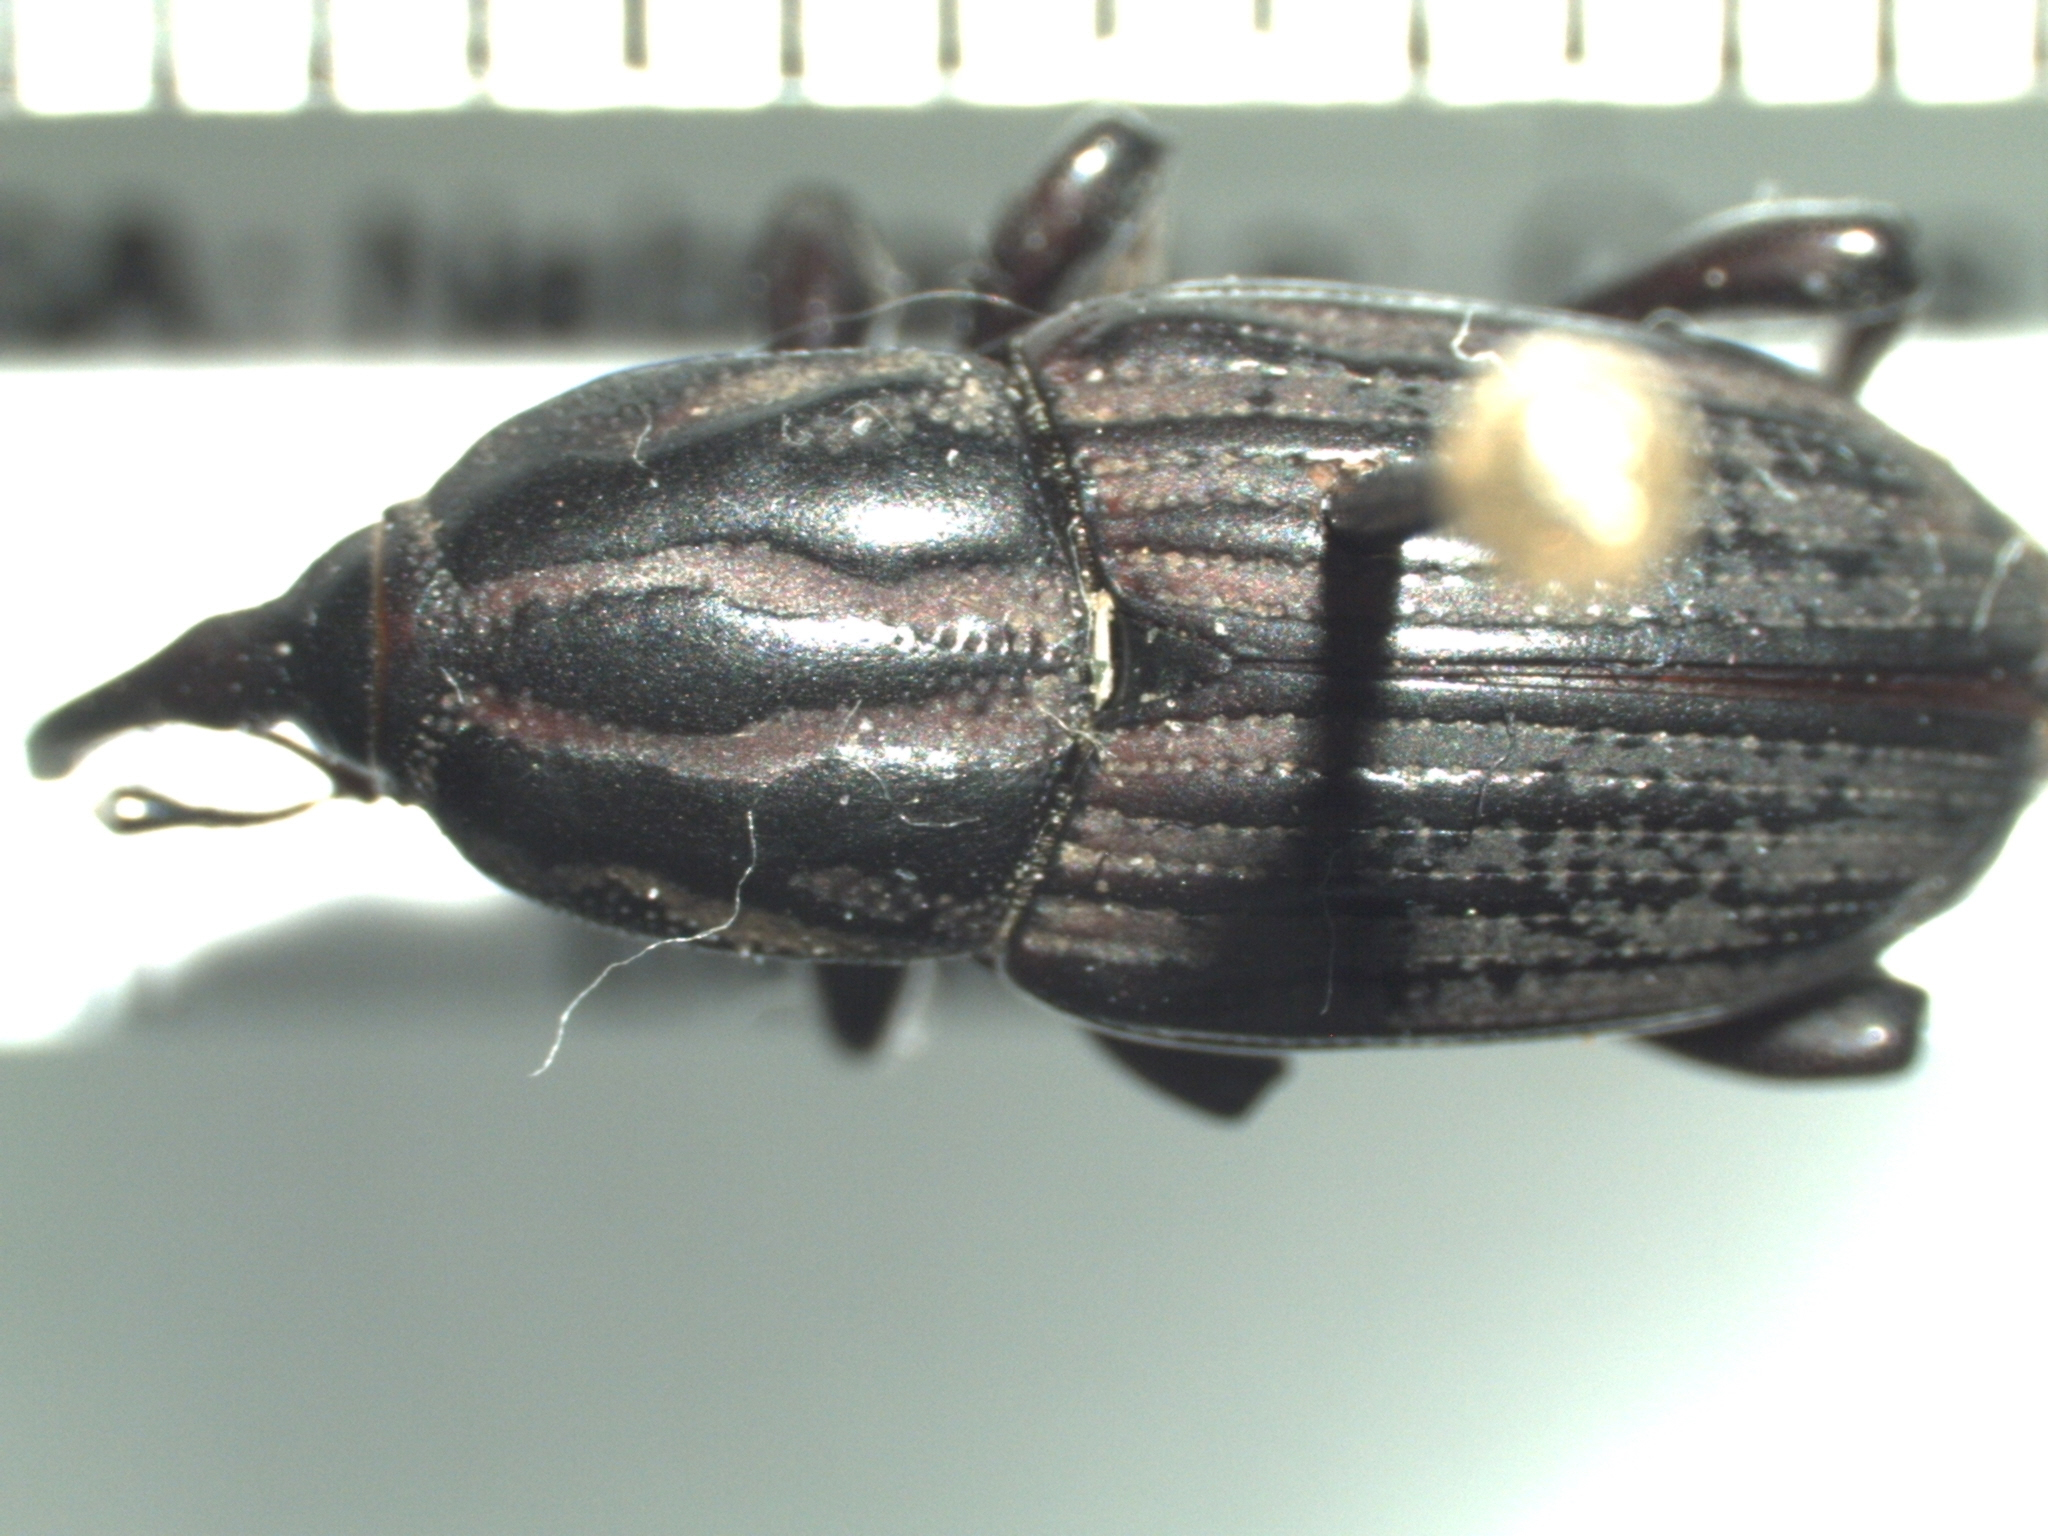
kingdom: Animalia
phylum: Arthropoda
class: Insecta
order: Coleoptera
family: Dryophthoridae
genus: Sphenophorus
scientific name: Sphenophorus australis
